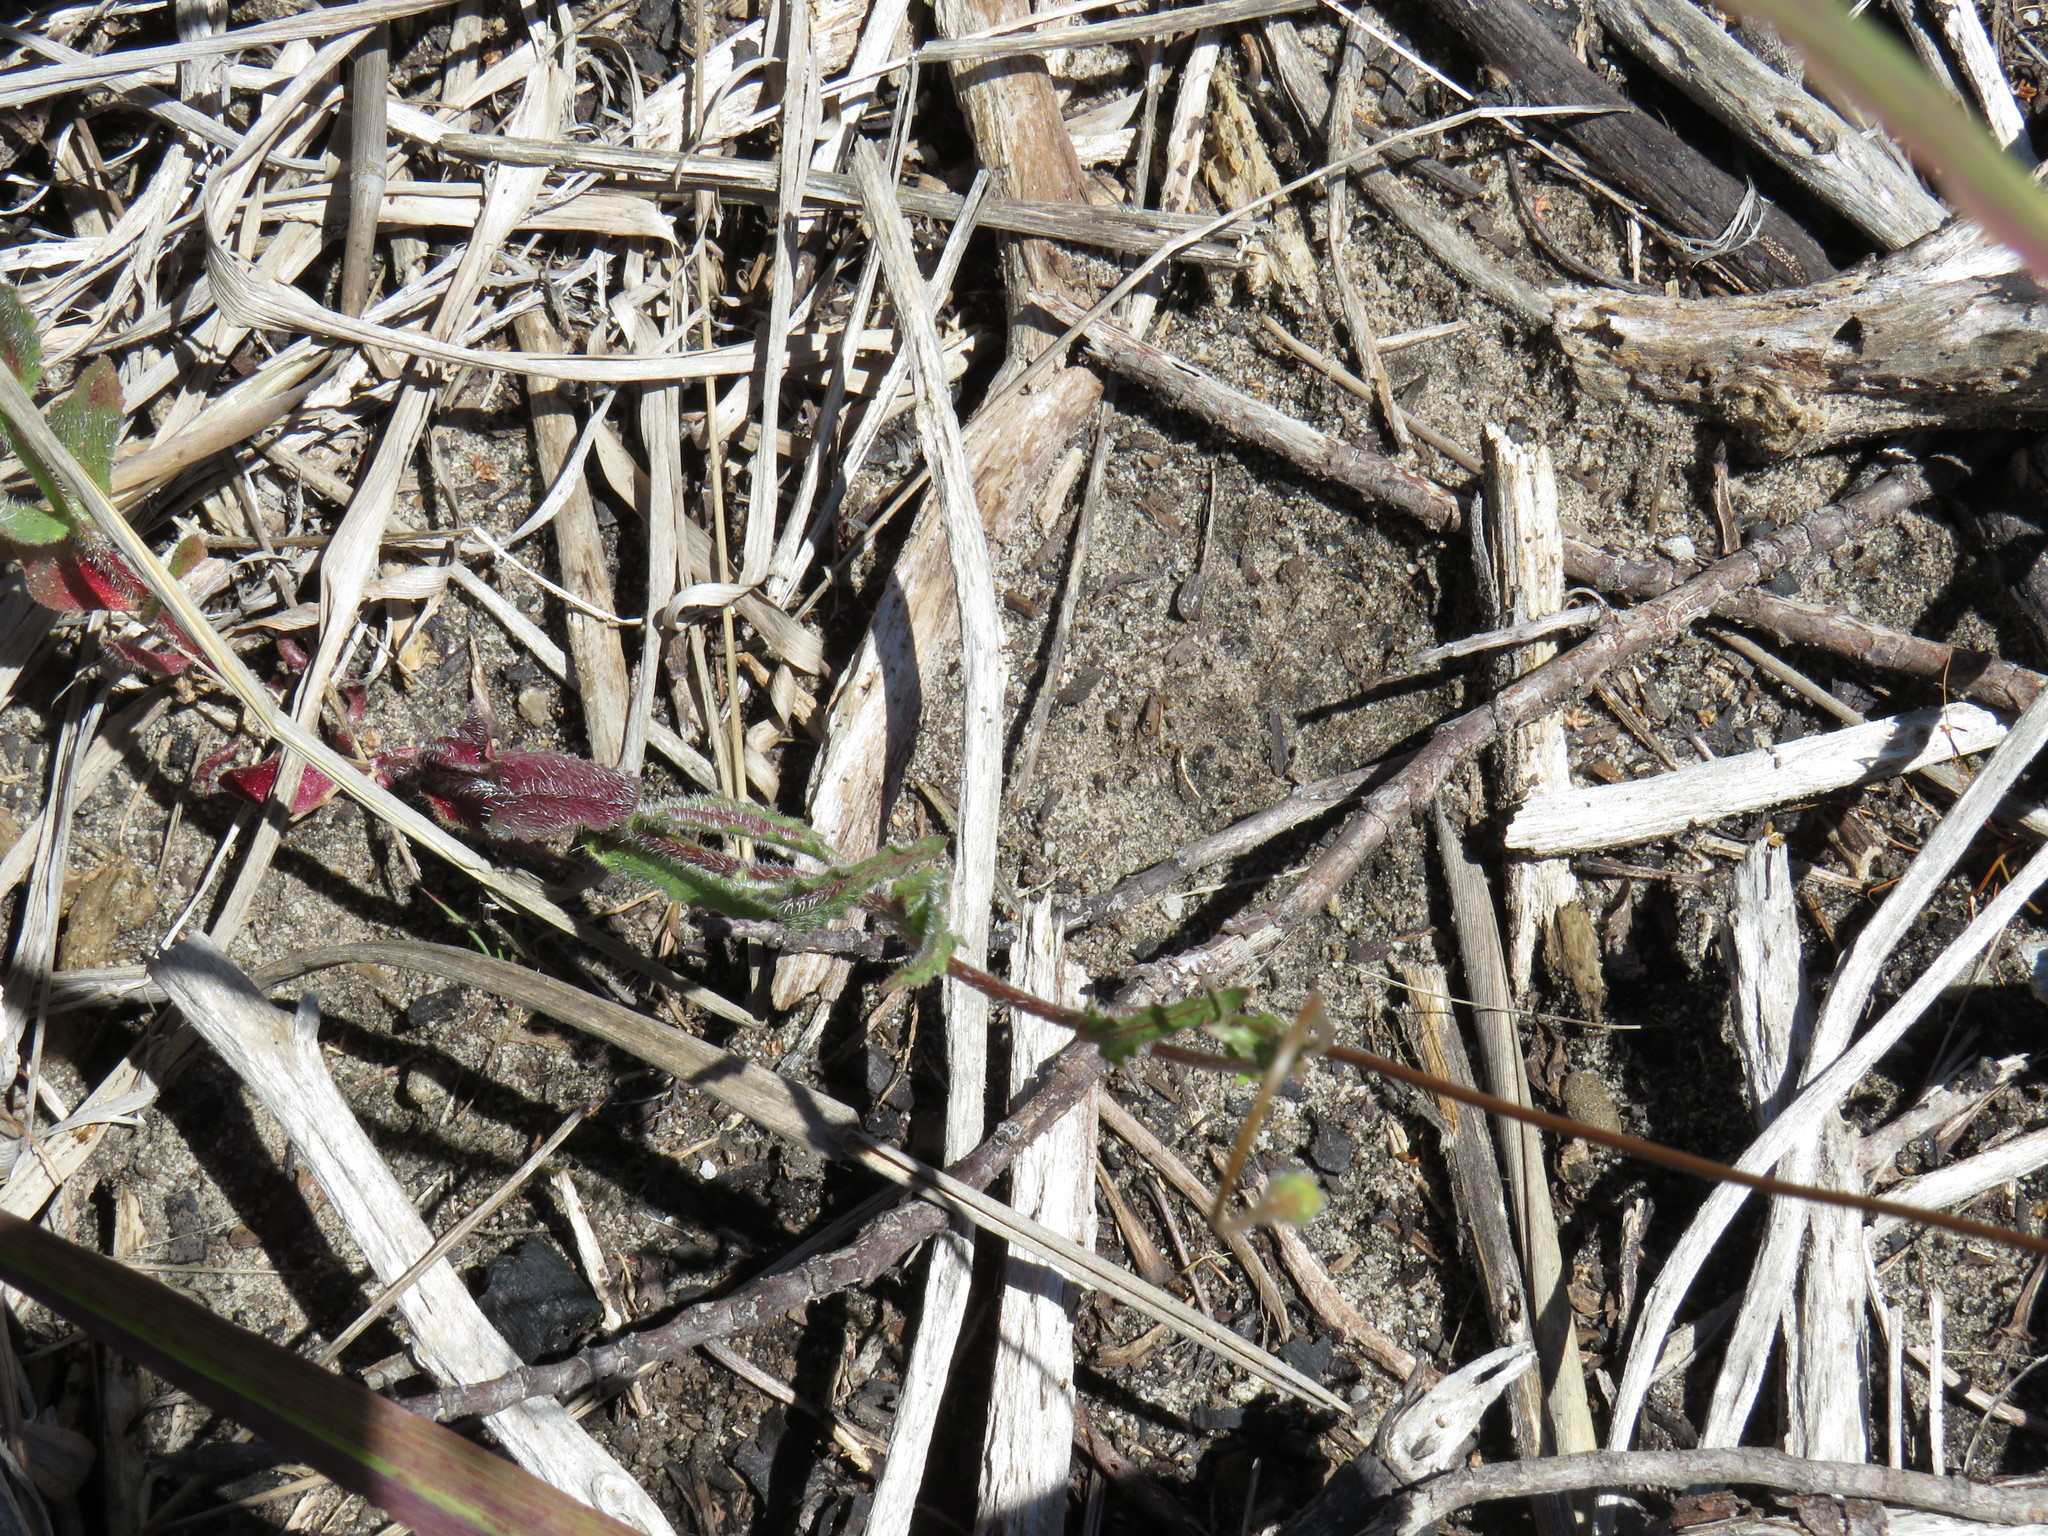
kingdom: Plantae
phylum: Tracheophyta
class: Magnoliopsida
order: Asterales
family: Campanulaceae
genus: Wahlenbergia
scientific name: Wahlenbergia capensis
